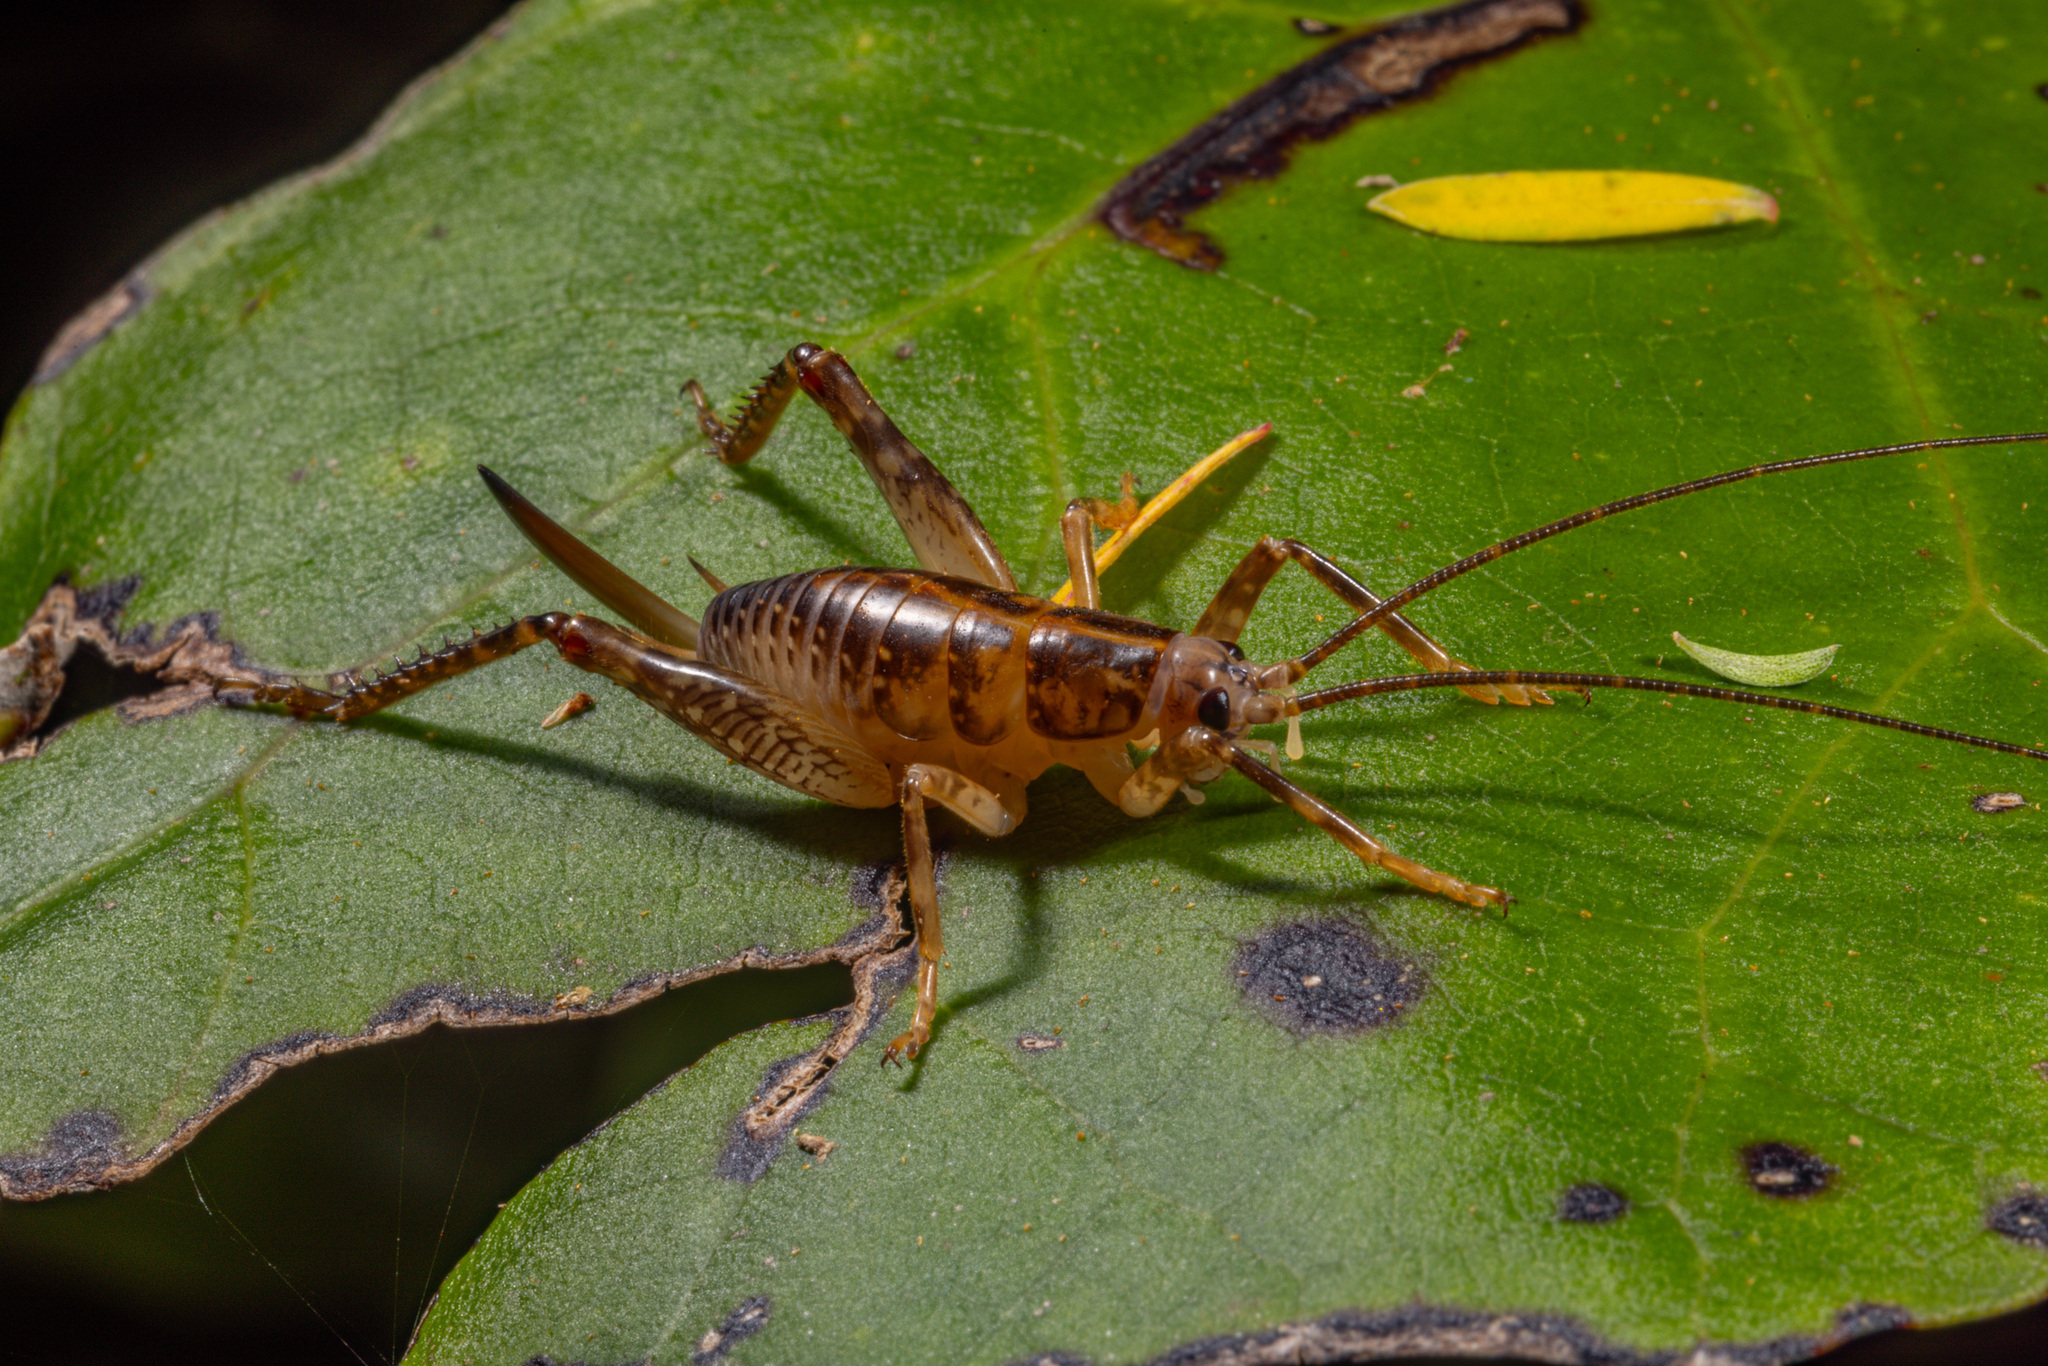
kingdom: Animalia
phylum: Arthropoda
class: Insecta
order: Orthoptera
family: Rhaphidophoridae
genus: Talitropsis
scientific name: Talitropsis sedilloti
